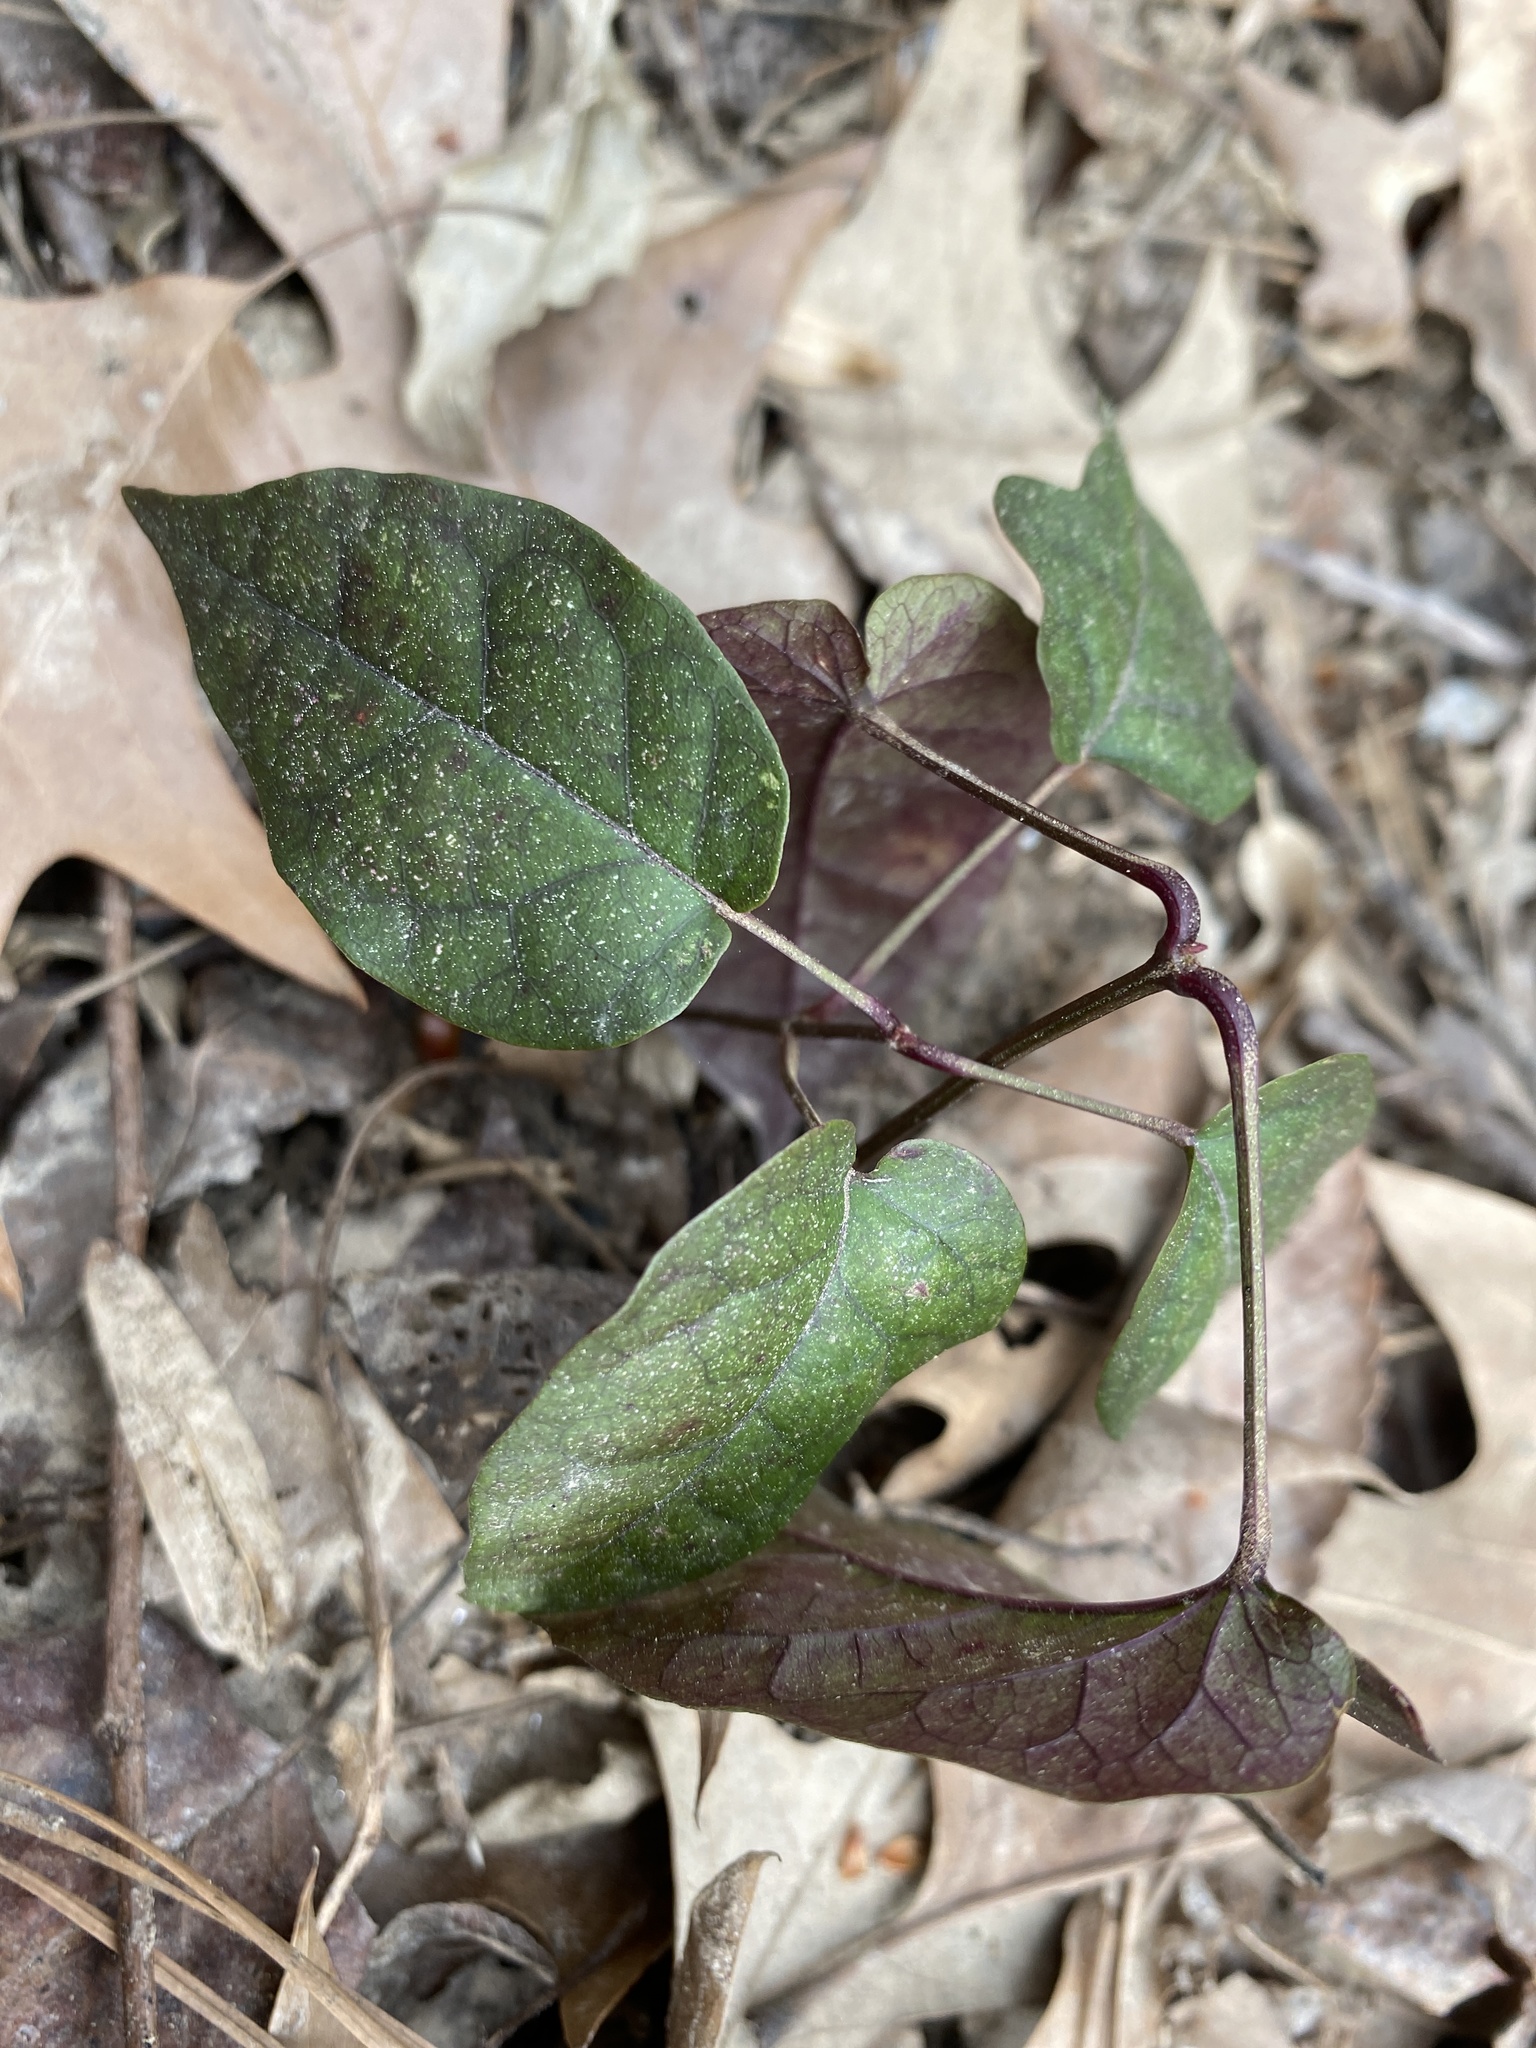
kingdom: Plantae
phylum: Tracheophyta
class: Magnoliopsida
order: Lamiales
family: Bignoniaceae
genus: Bignonia
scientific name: Bignonia capreolata
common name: Crossvine
